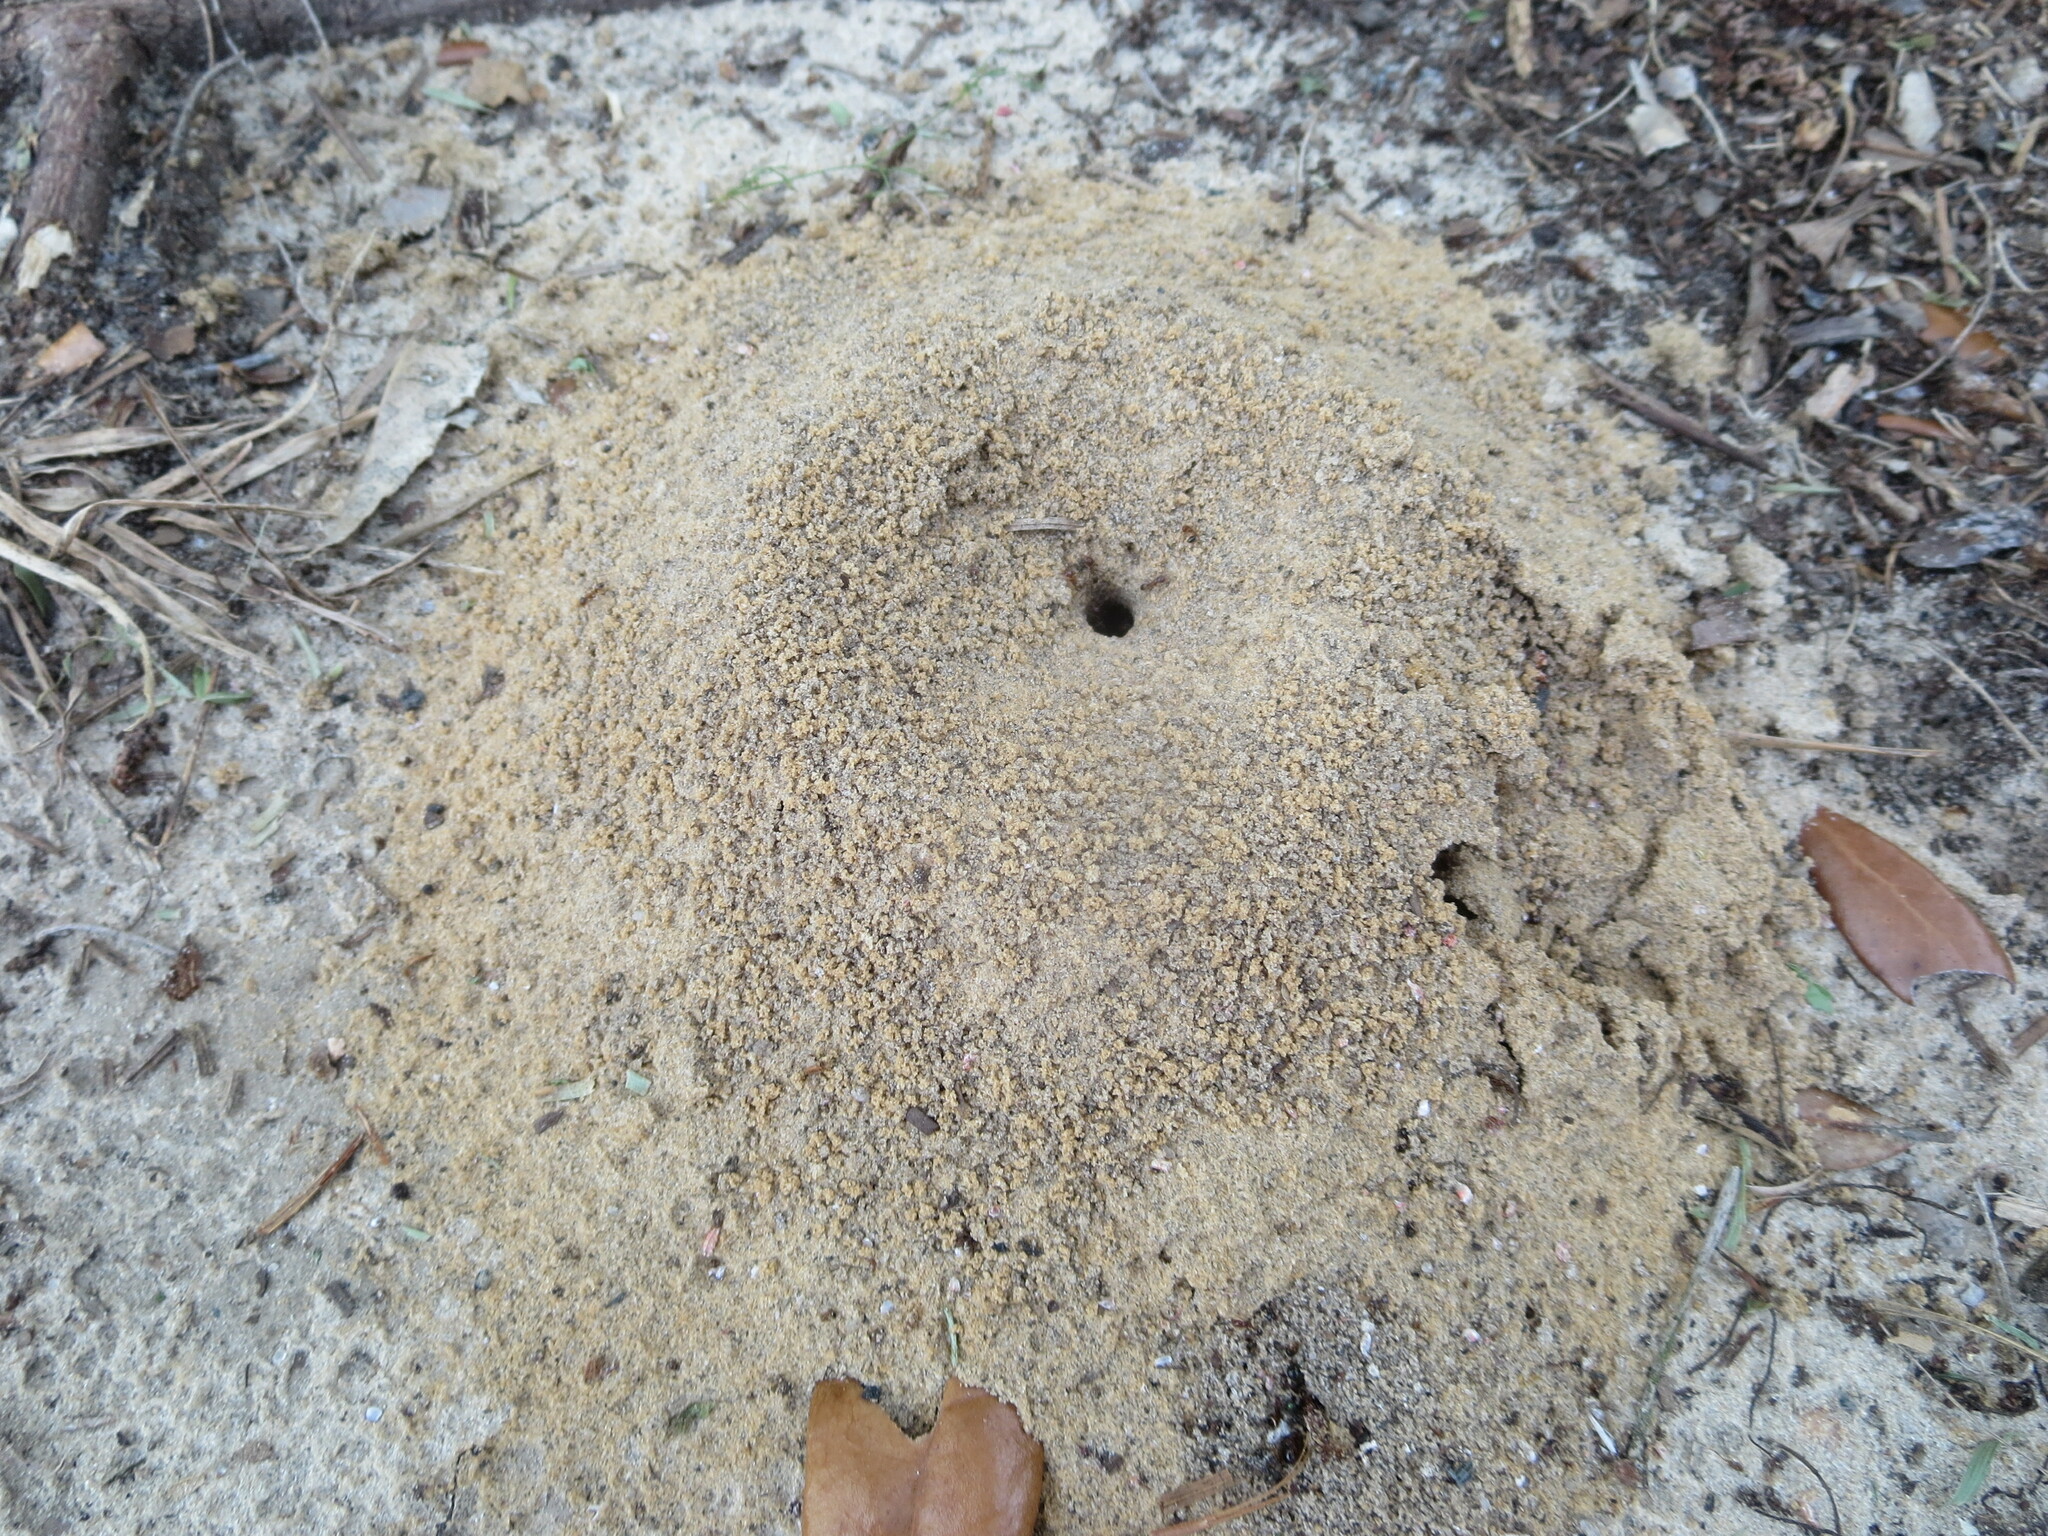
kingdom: Animalia
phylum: Arthropoda
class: Insecta
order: Hymenoptera
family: Formicidae
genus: Dorymyrmex
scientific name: Dorymyrmex bureni
